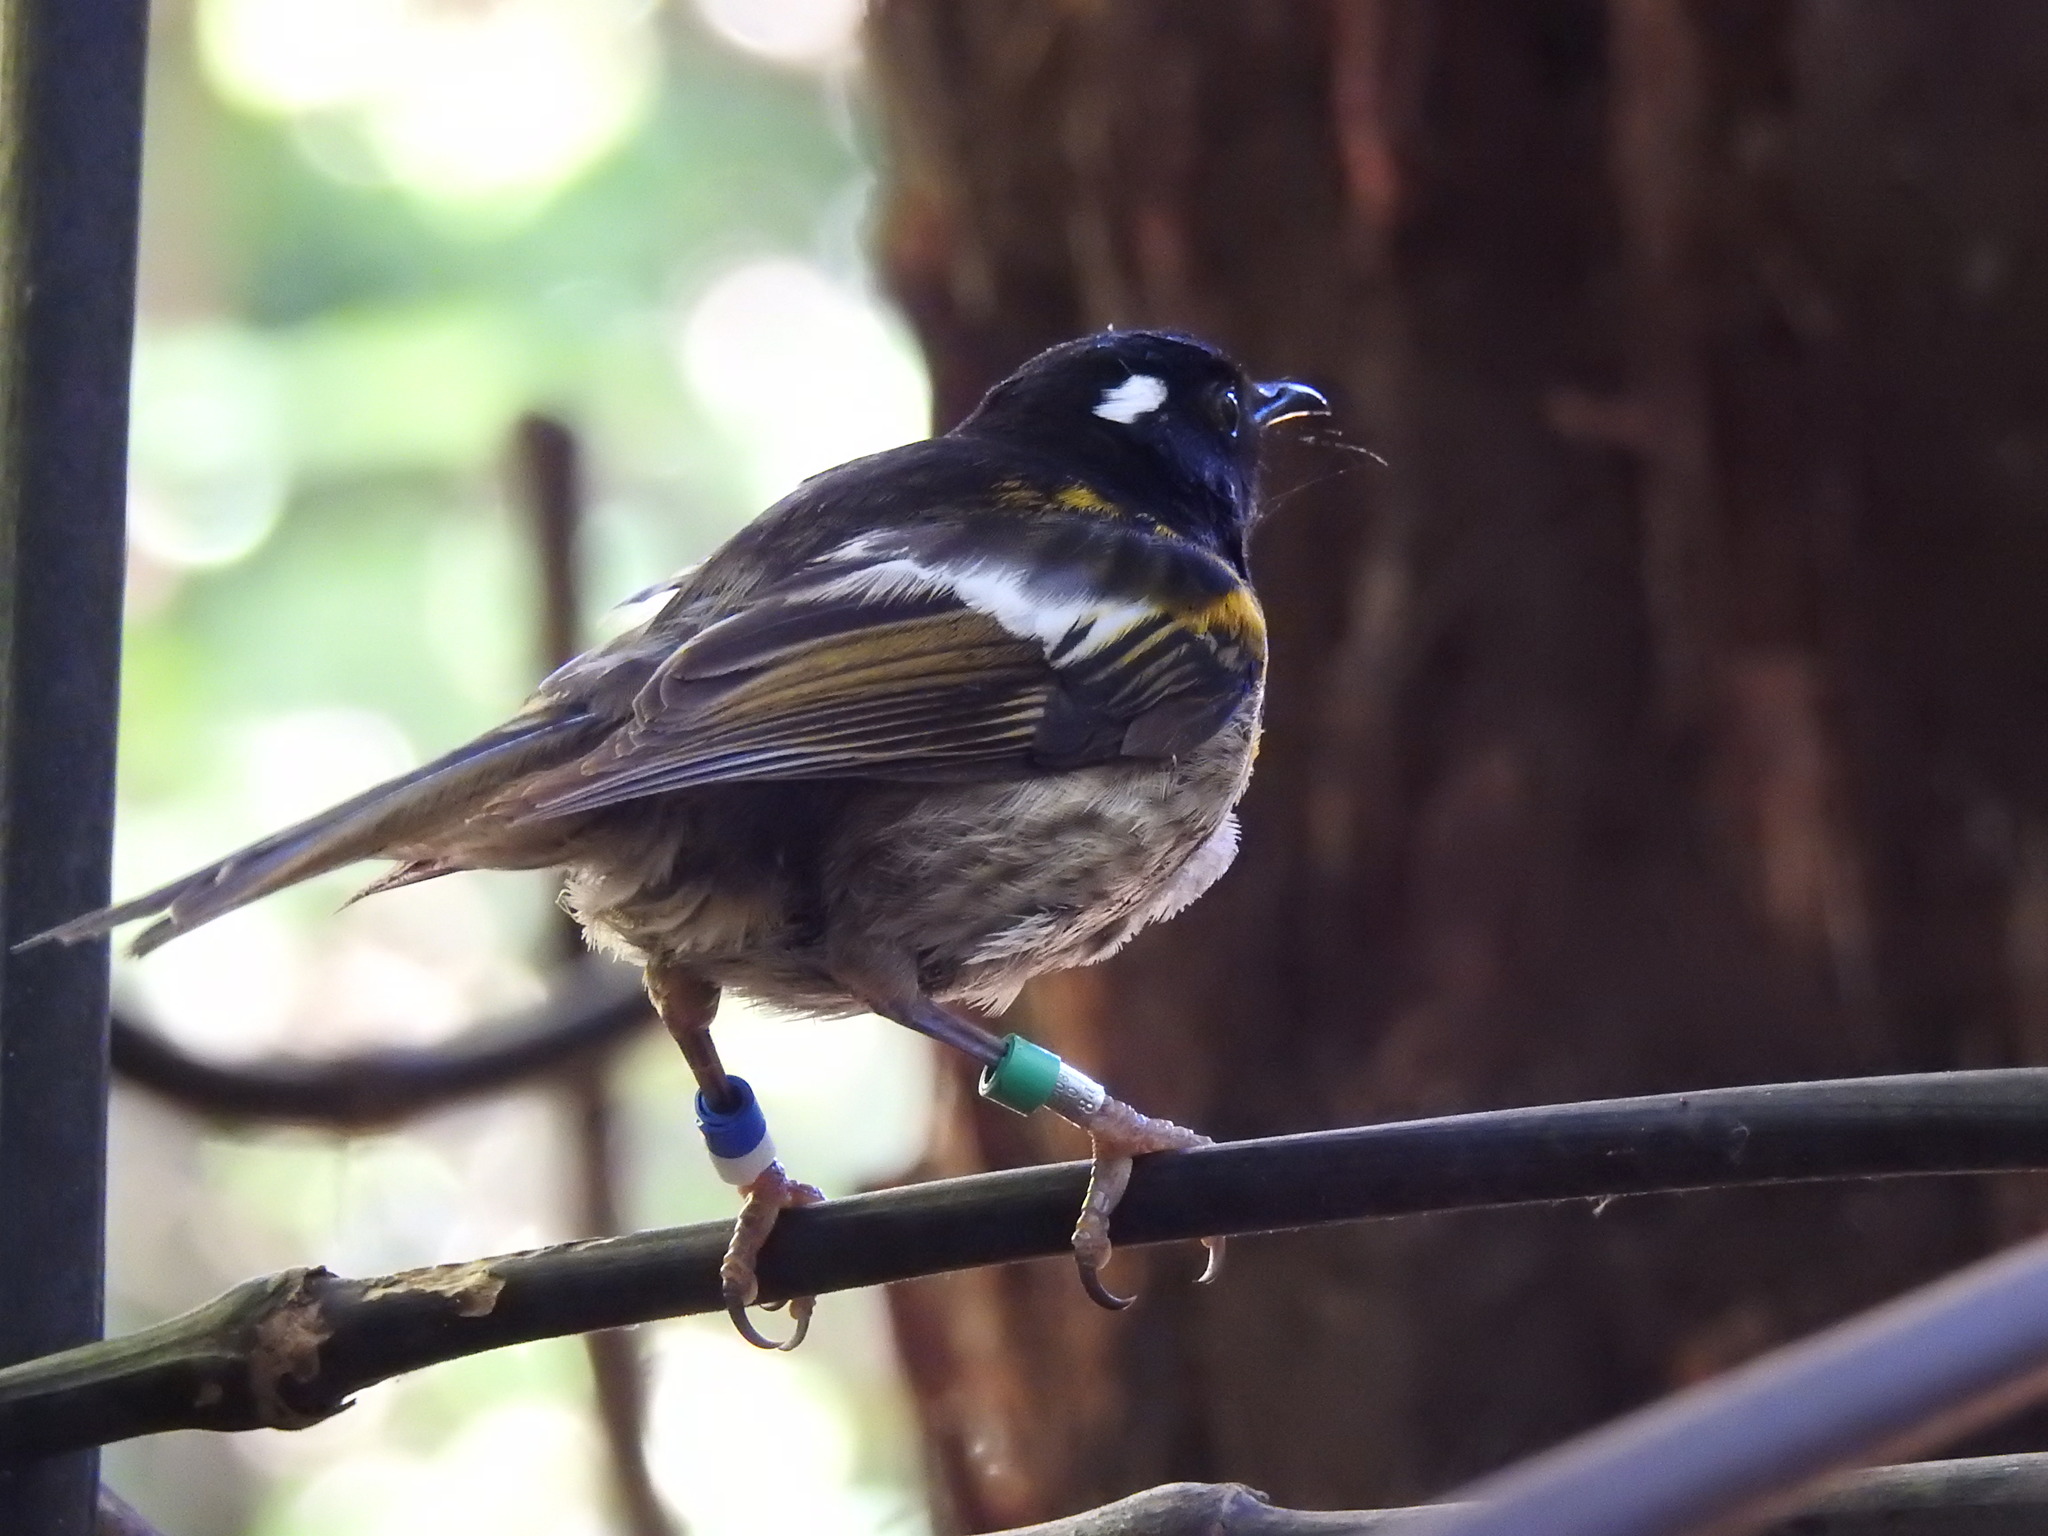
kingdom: Animalia
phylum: Chordata
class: Aves
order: Passeriformes
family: Notiomystidae
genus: Notiomystis
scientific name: Notiomystis cincta
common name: Stitchbird
